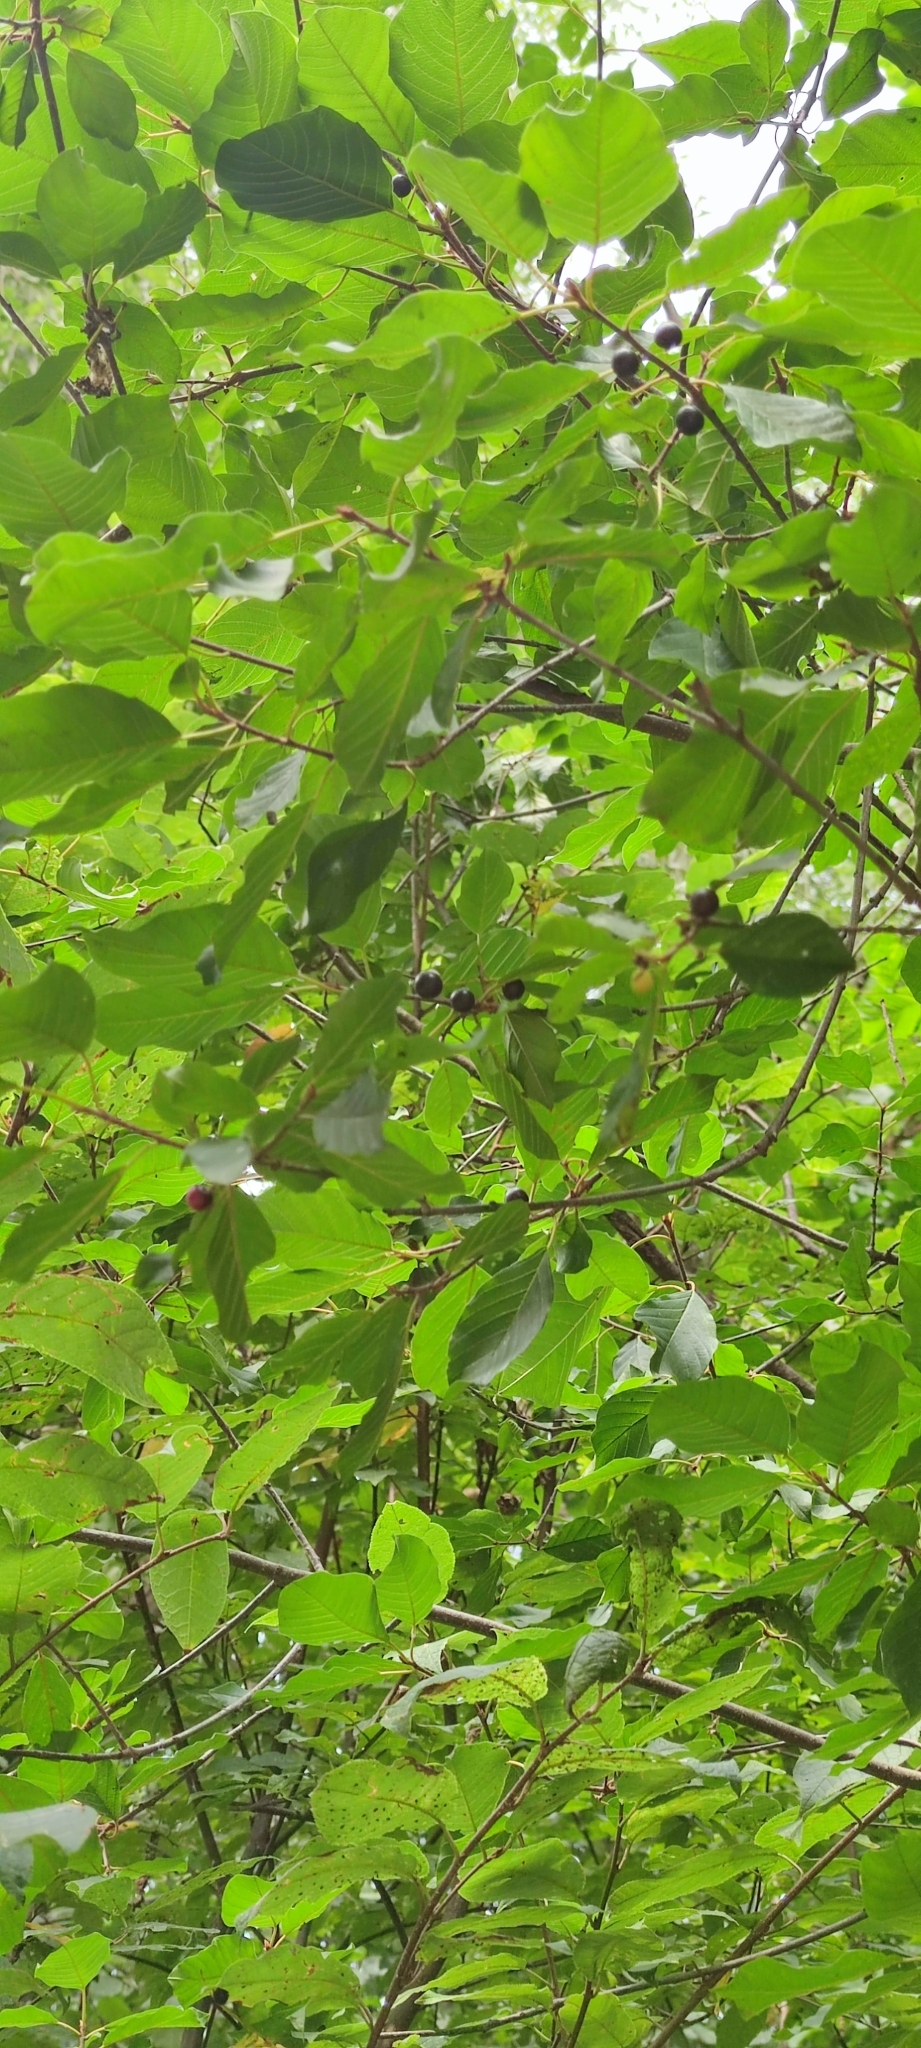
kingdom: Plantae
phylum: Tracheophyta
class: Magnoliopsida
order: Rosales
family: Rhamnaceae
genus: Frangula
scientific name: Frangula alnus
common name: Alder buckthorn
